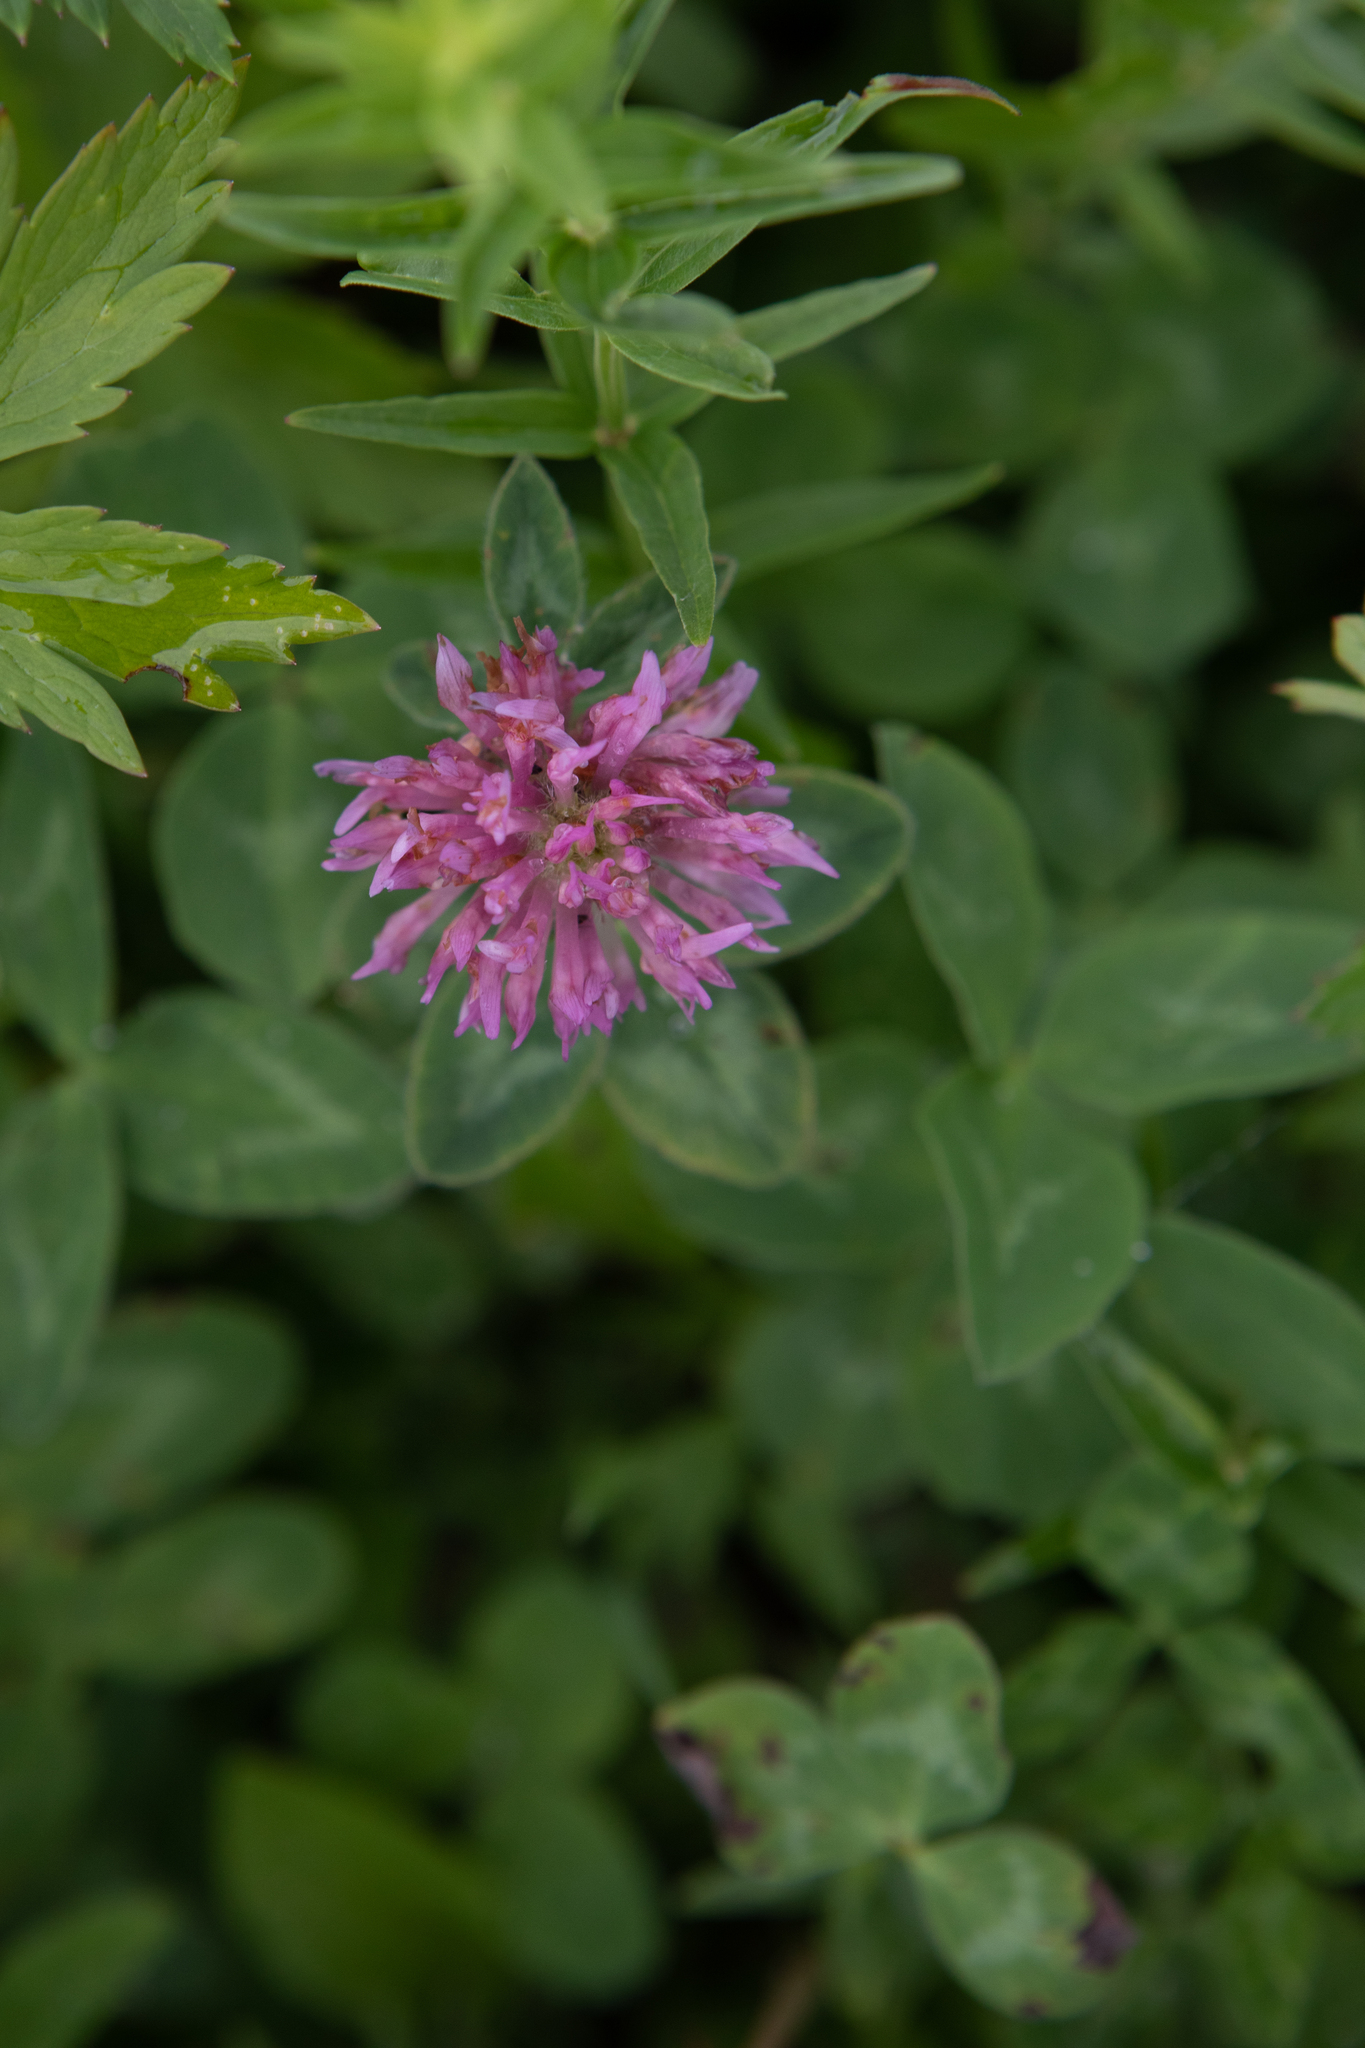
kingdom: Plantae
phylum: Tracheophyta
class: Magnoliopsida
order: Fabales
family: Fabaceae
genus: Trifolium
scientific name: Trifolium pratense
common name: Red clover
